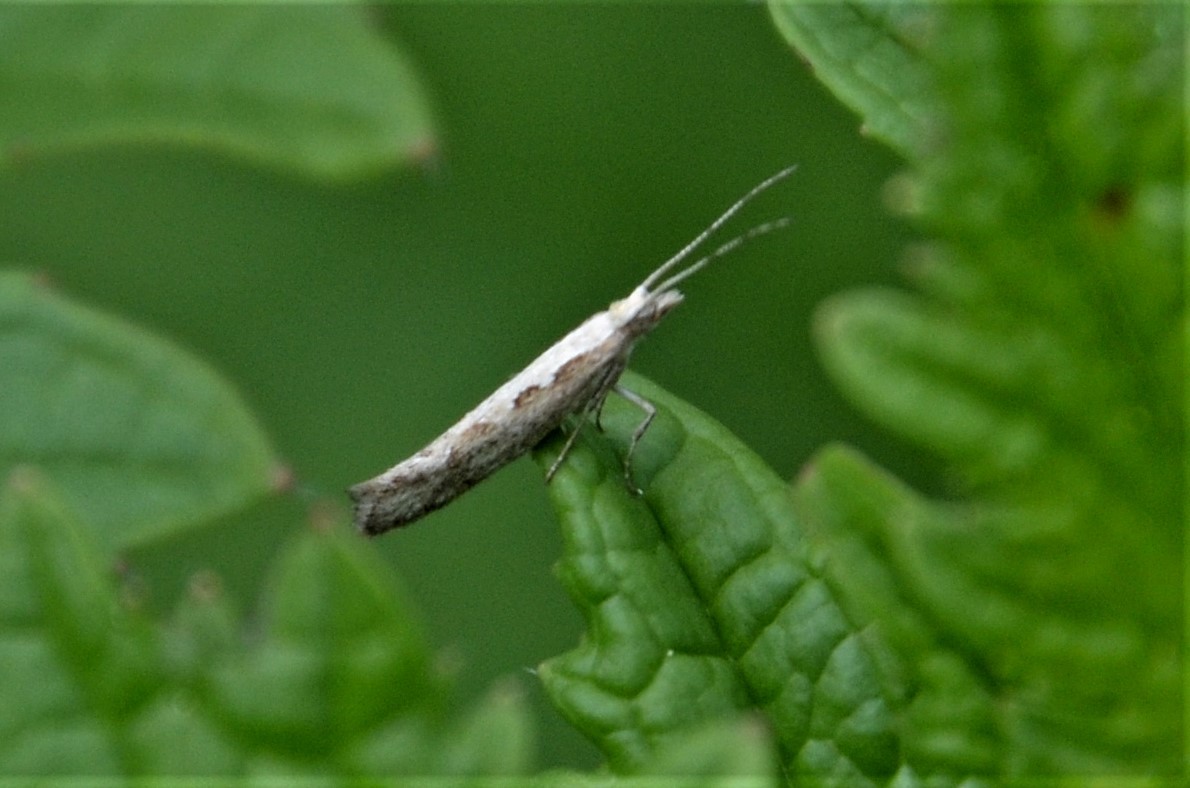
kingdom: Animalia
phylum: Arthropoda
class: Insecta
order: Lepidoptera
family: Plutellidae
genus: Plutella
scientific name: Plutella xylostella
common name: Diamond-back moth
